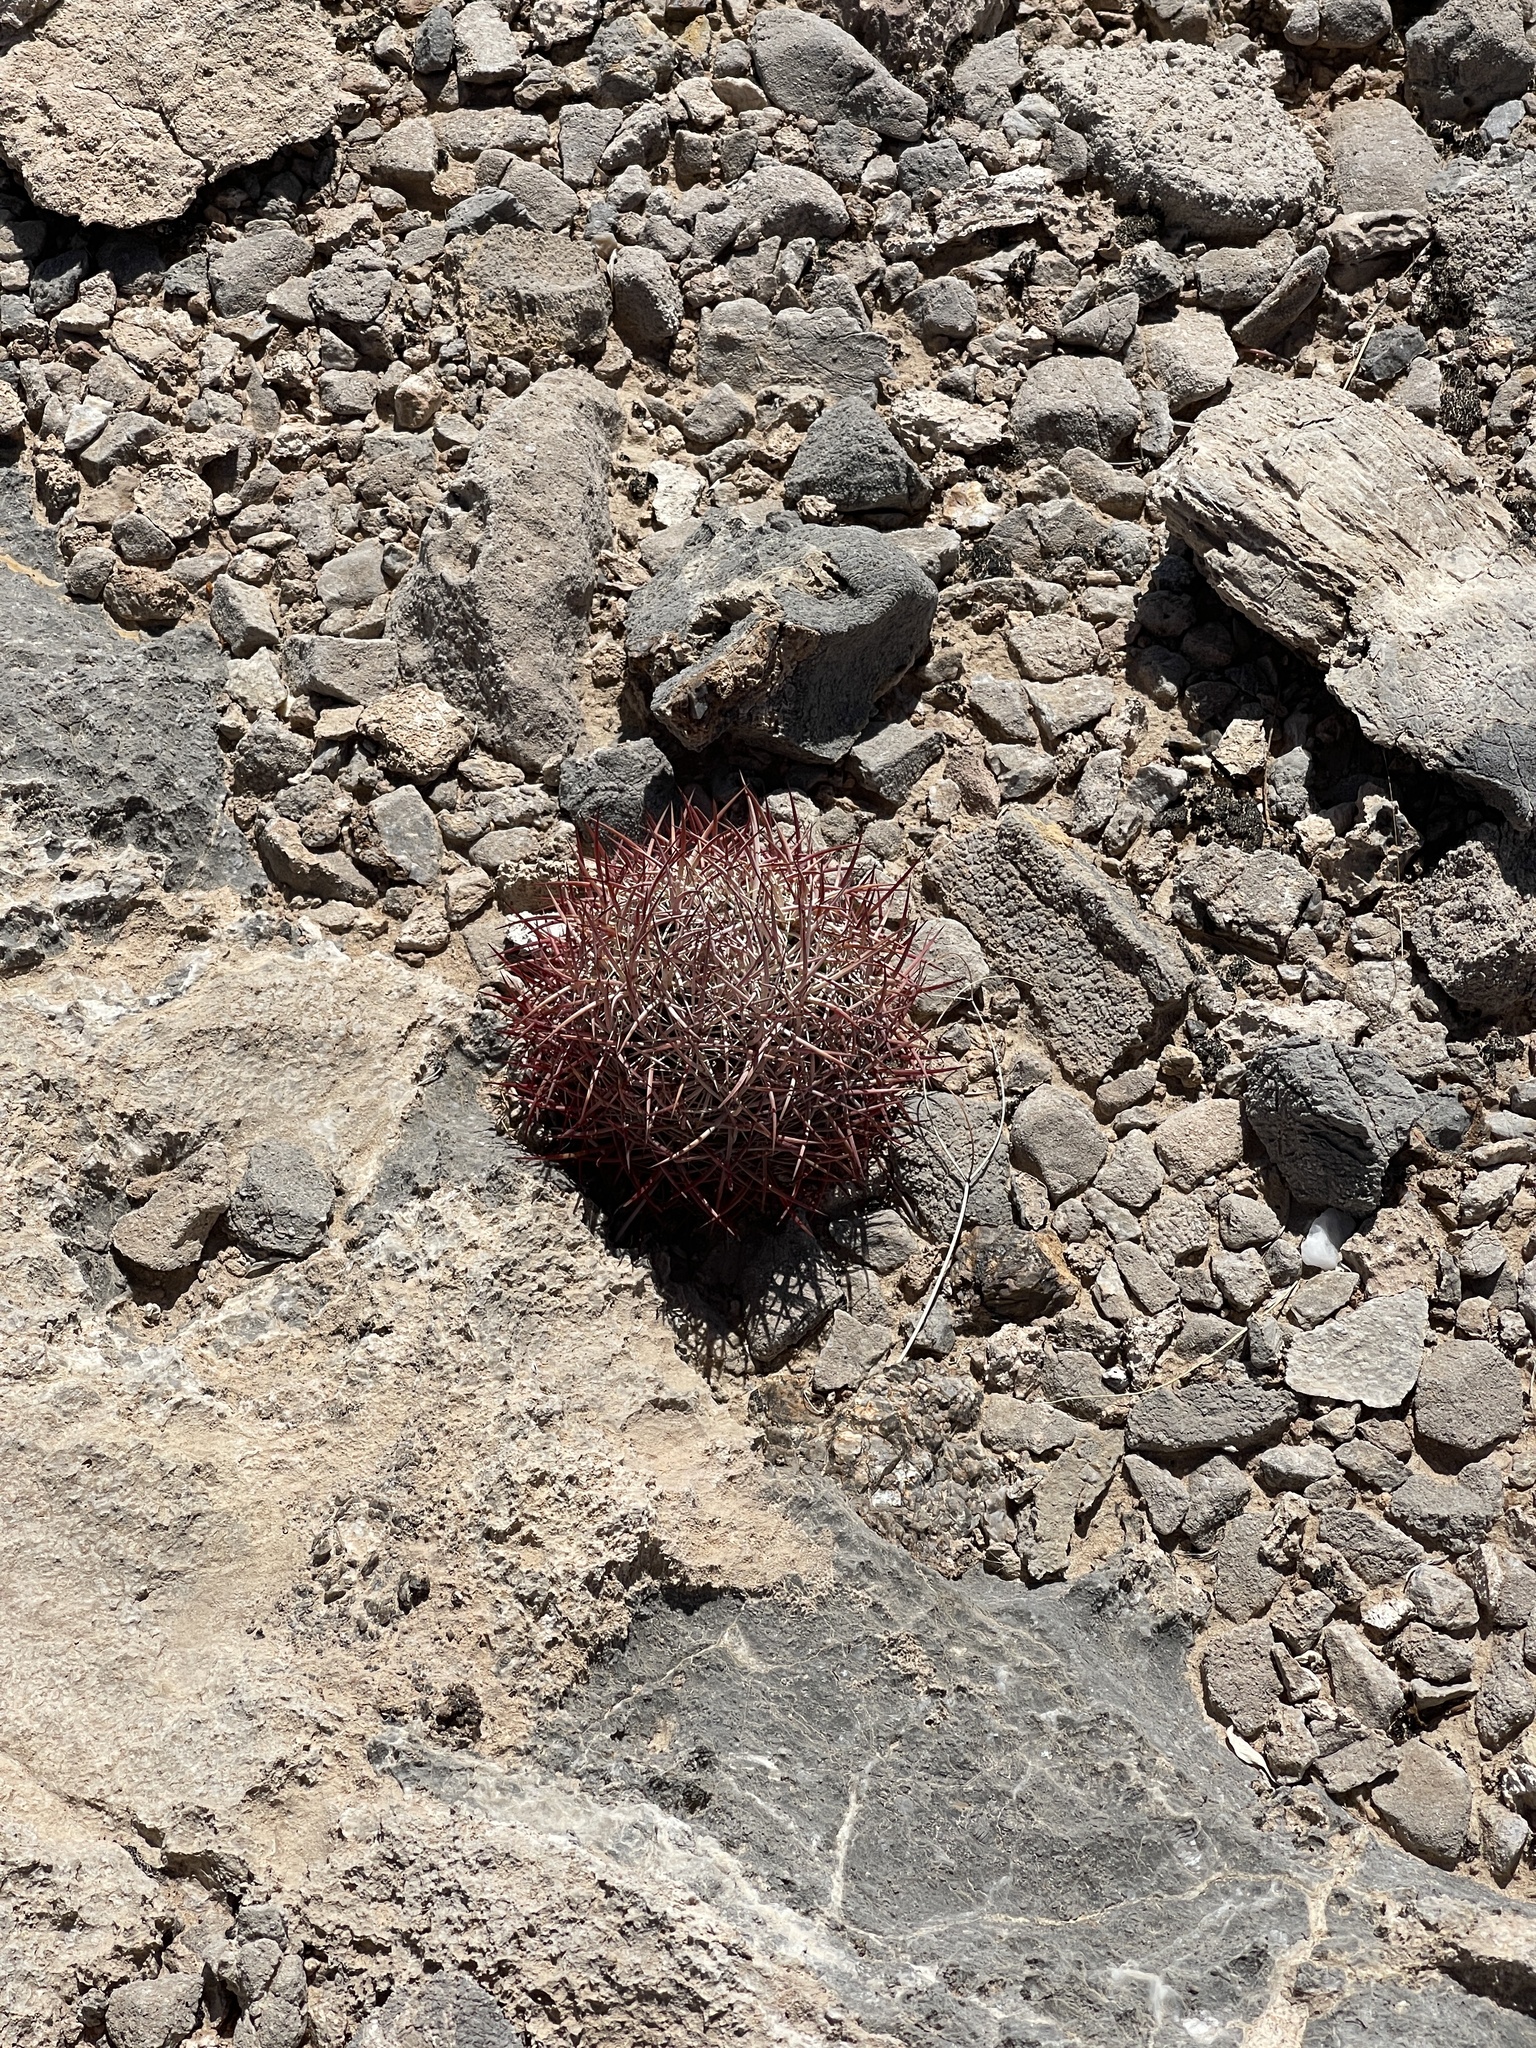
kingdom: Plantae
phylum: Tracheophyta
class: Magnoliopsida
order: Caryophyllales
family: Cactaceae
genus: Sclerocactus
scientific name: Sclerocactus johnsonii
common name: Eight-spine fishhook cactus
